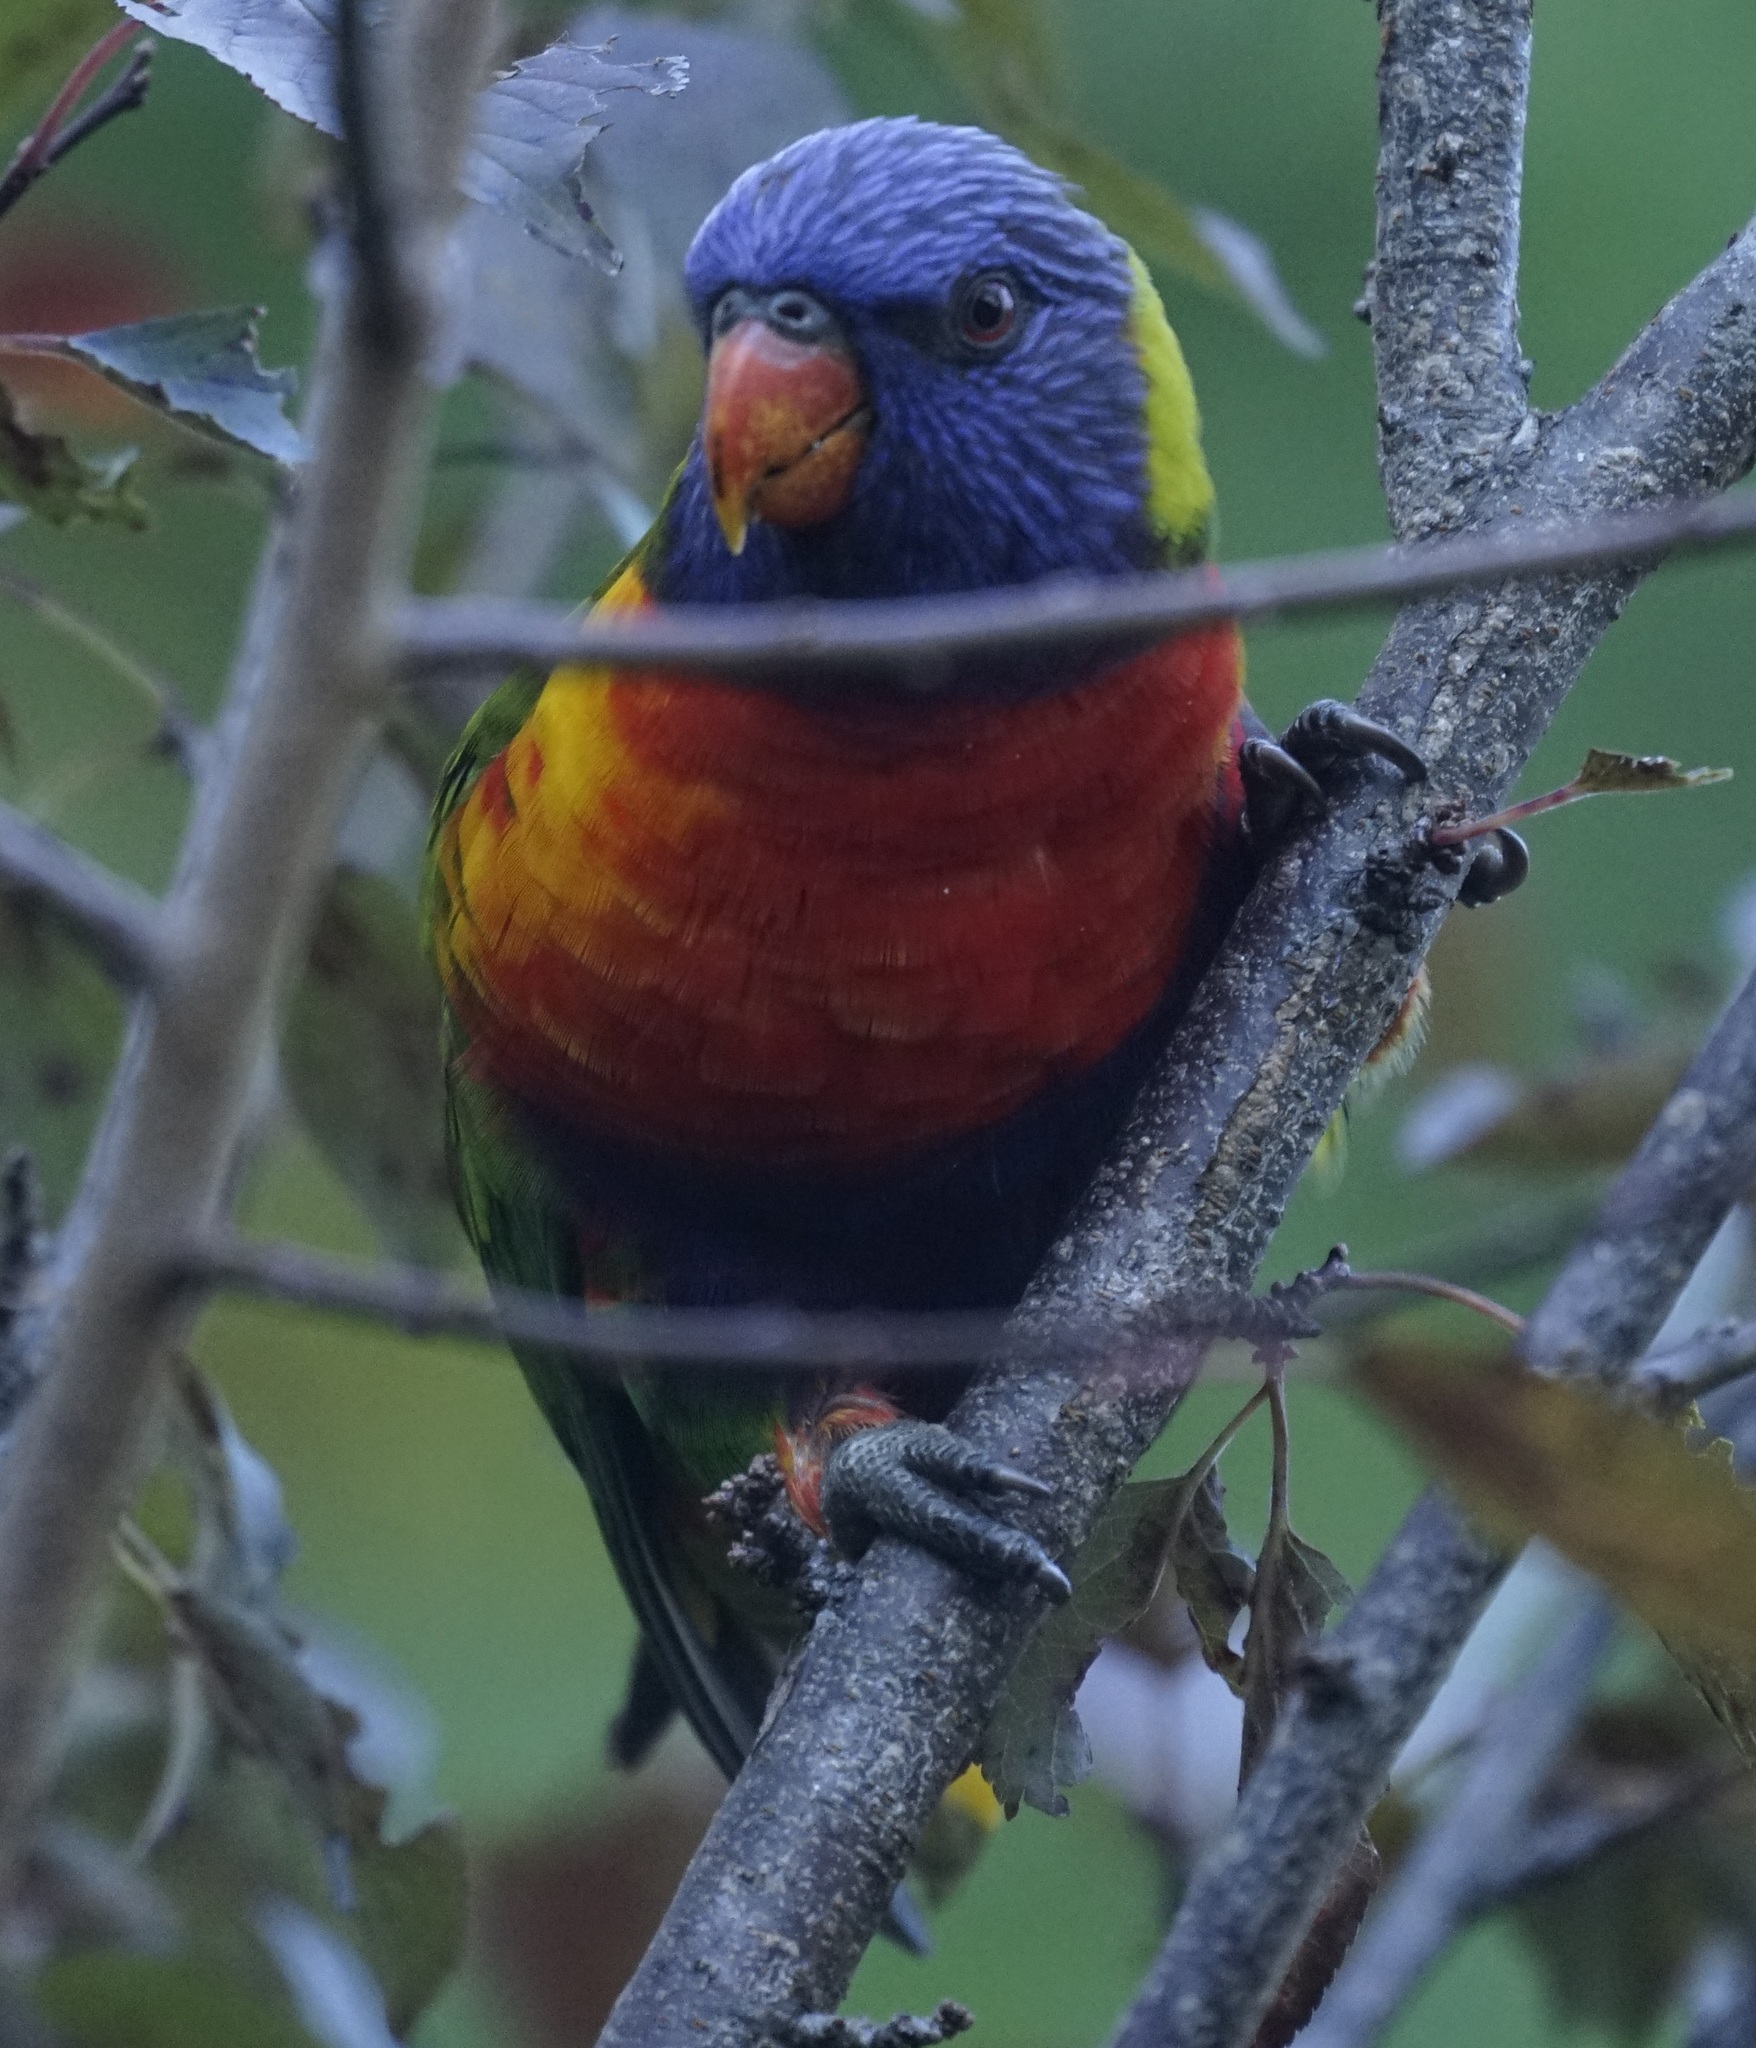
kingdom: Animalia
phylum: Chordata
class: Aves
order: Psittaciformes
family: Psittacidae
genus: Trichoglossus
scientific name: Trichoglossus haematodus
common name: Coconut lorikeet
